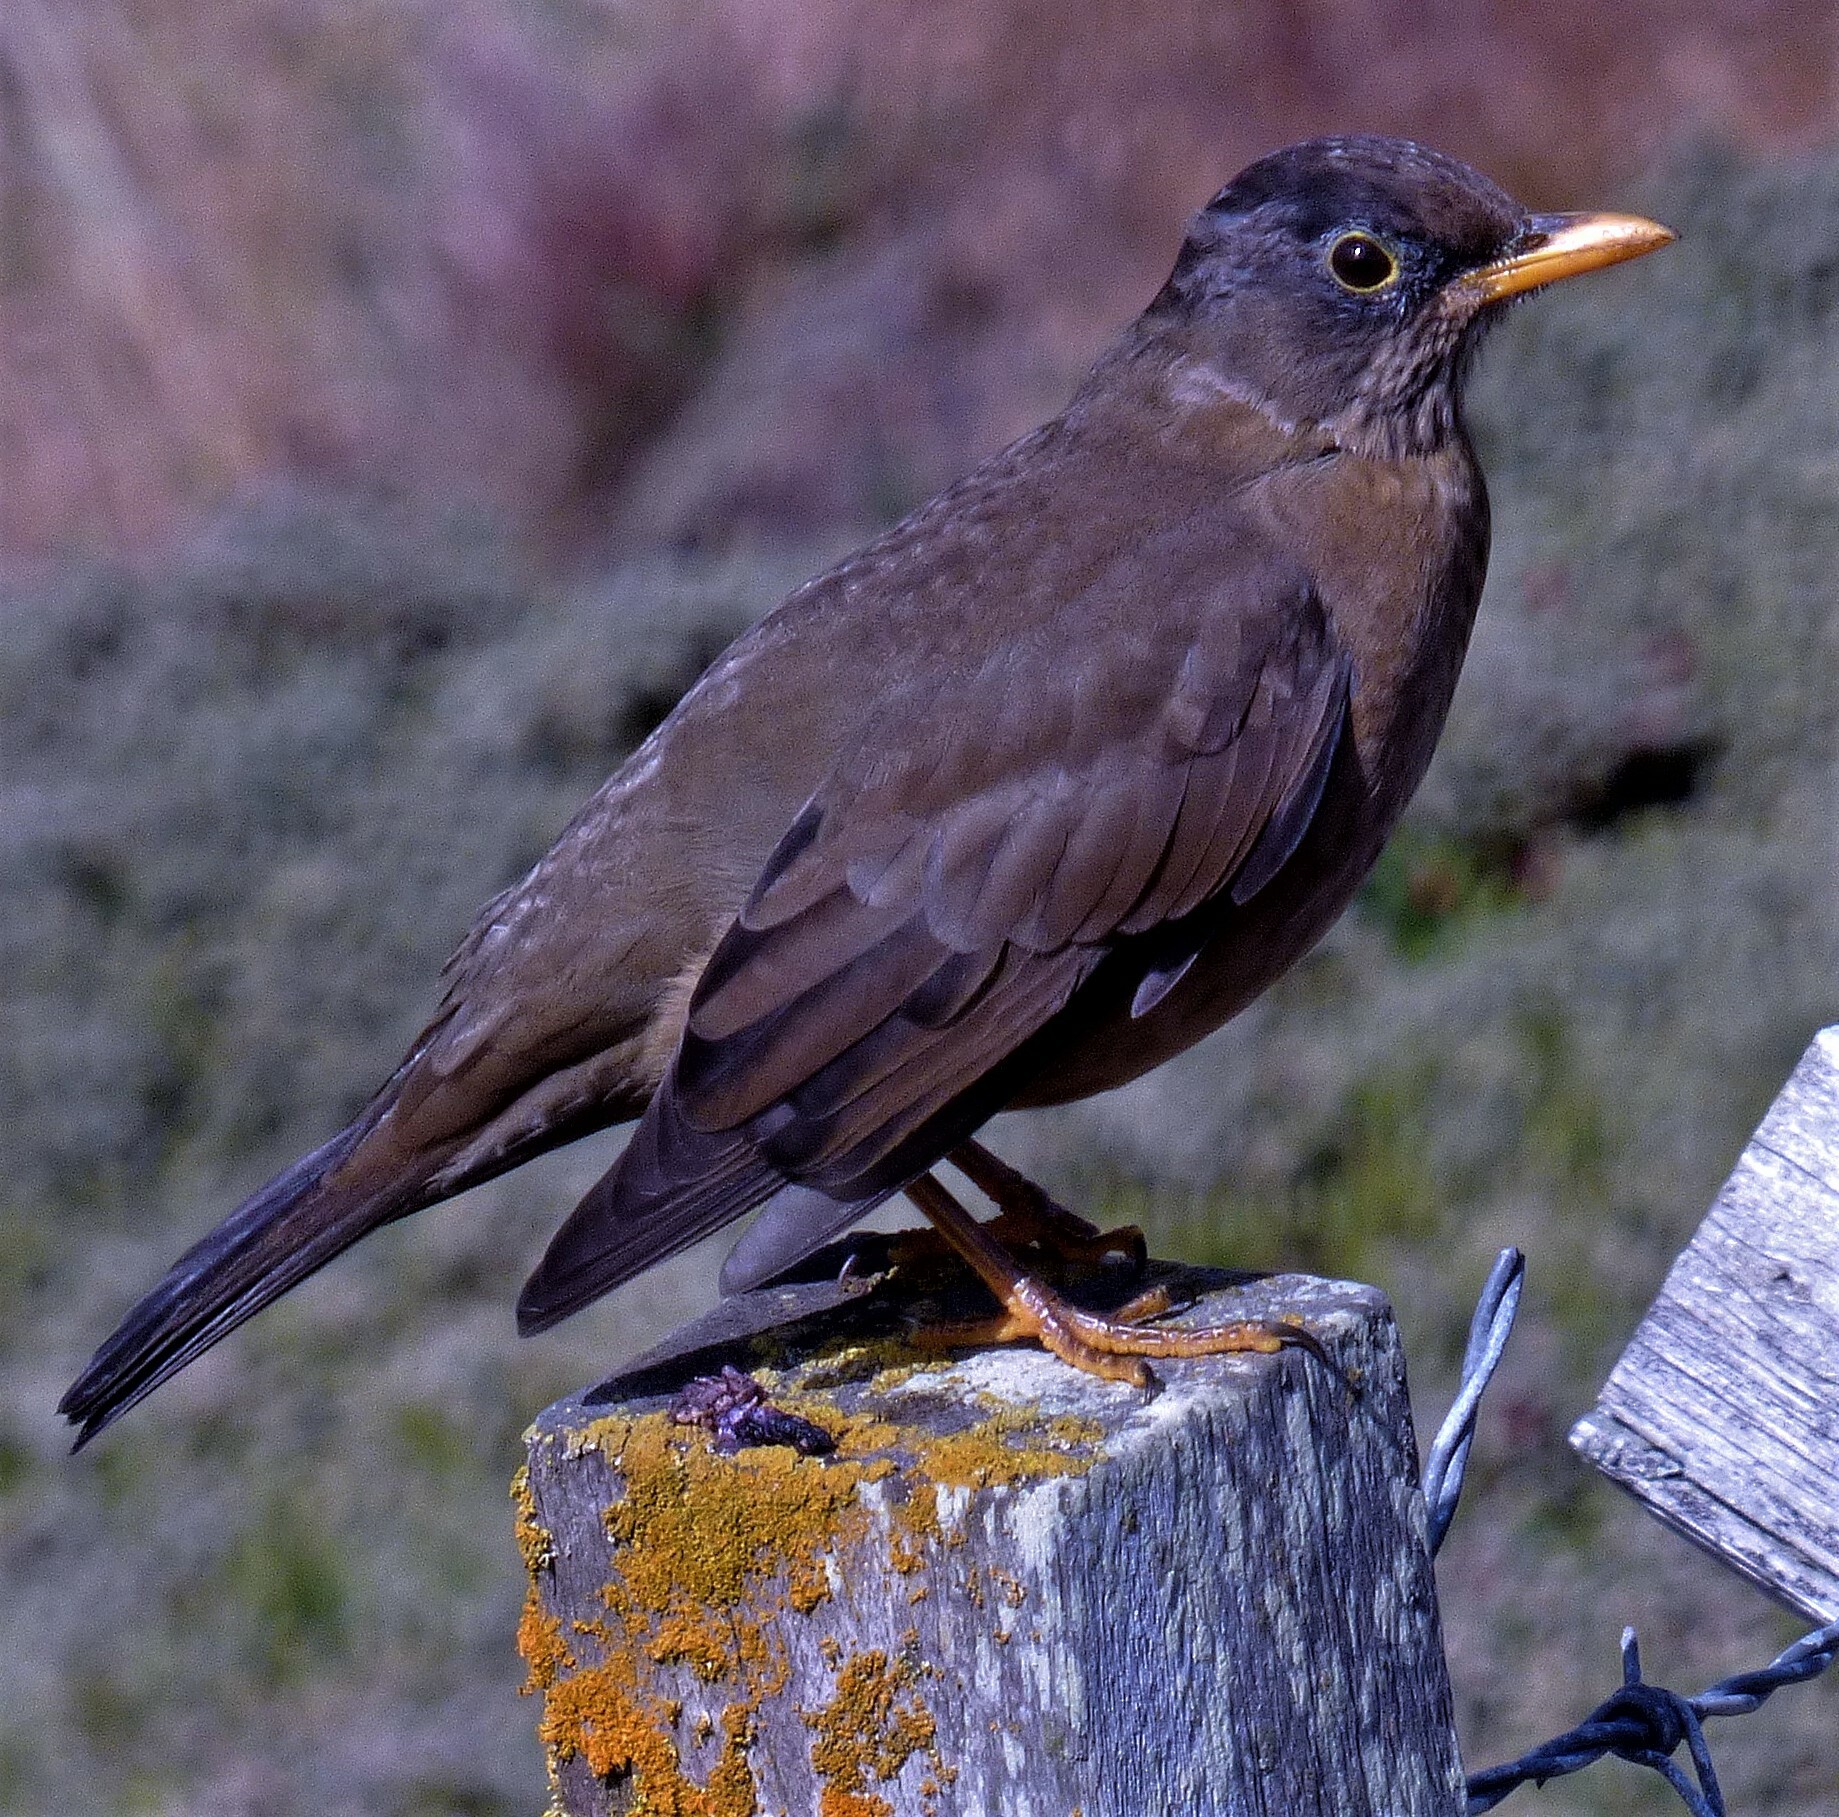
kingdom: Animalia
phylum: Chordata
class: Aves
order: Passeriformes
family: Turdidae
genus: Turdus
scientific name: Turdus falcklandii
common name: Austral thrush
